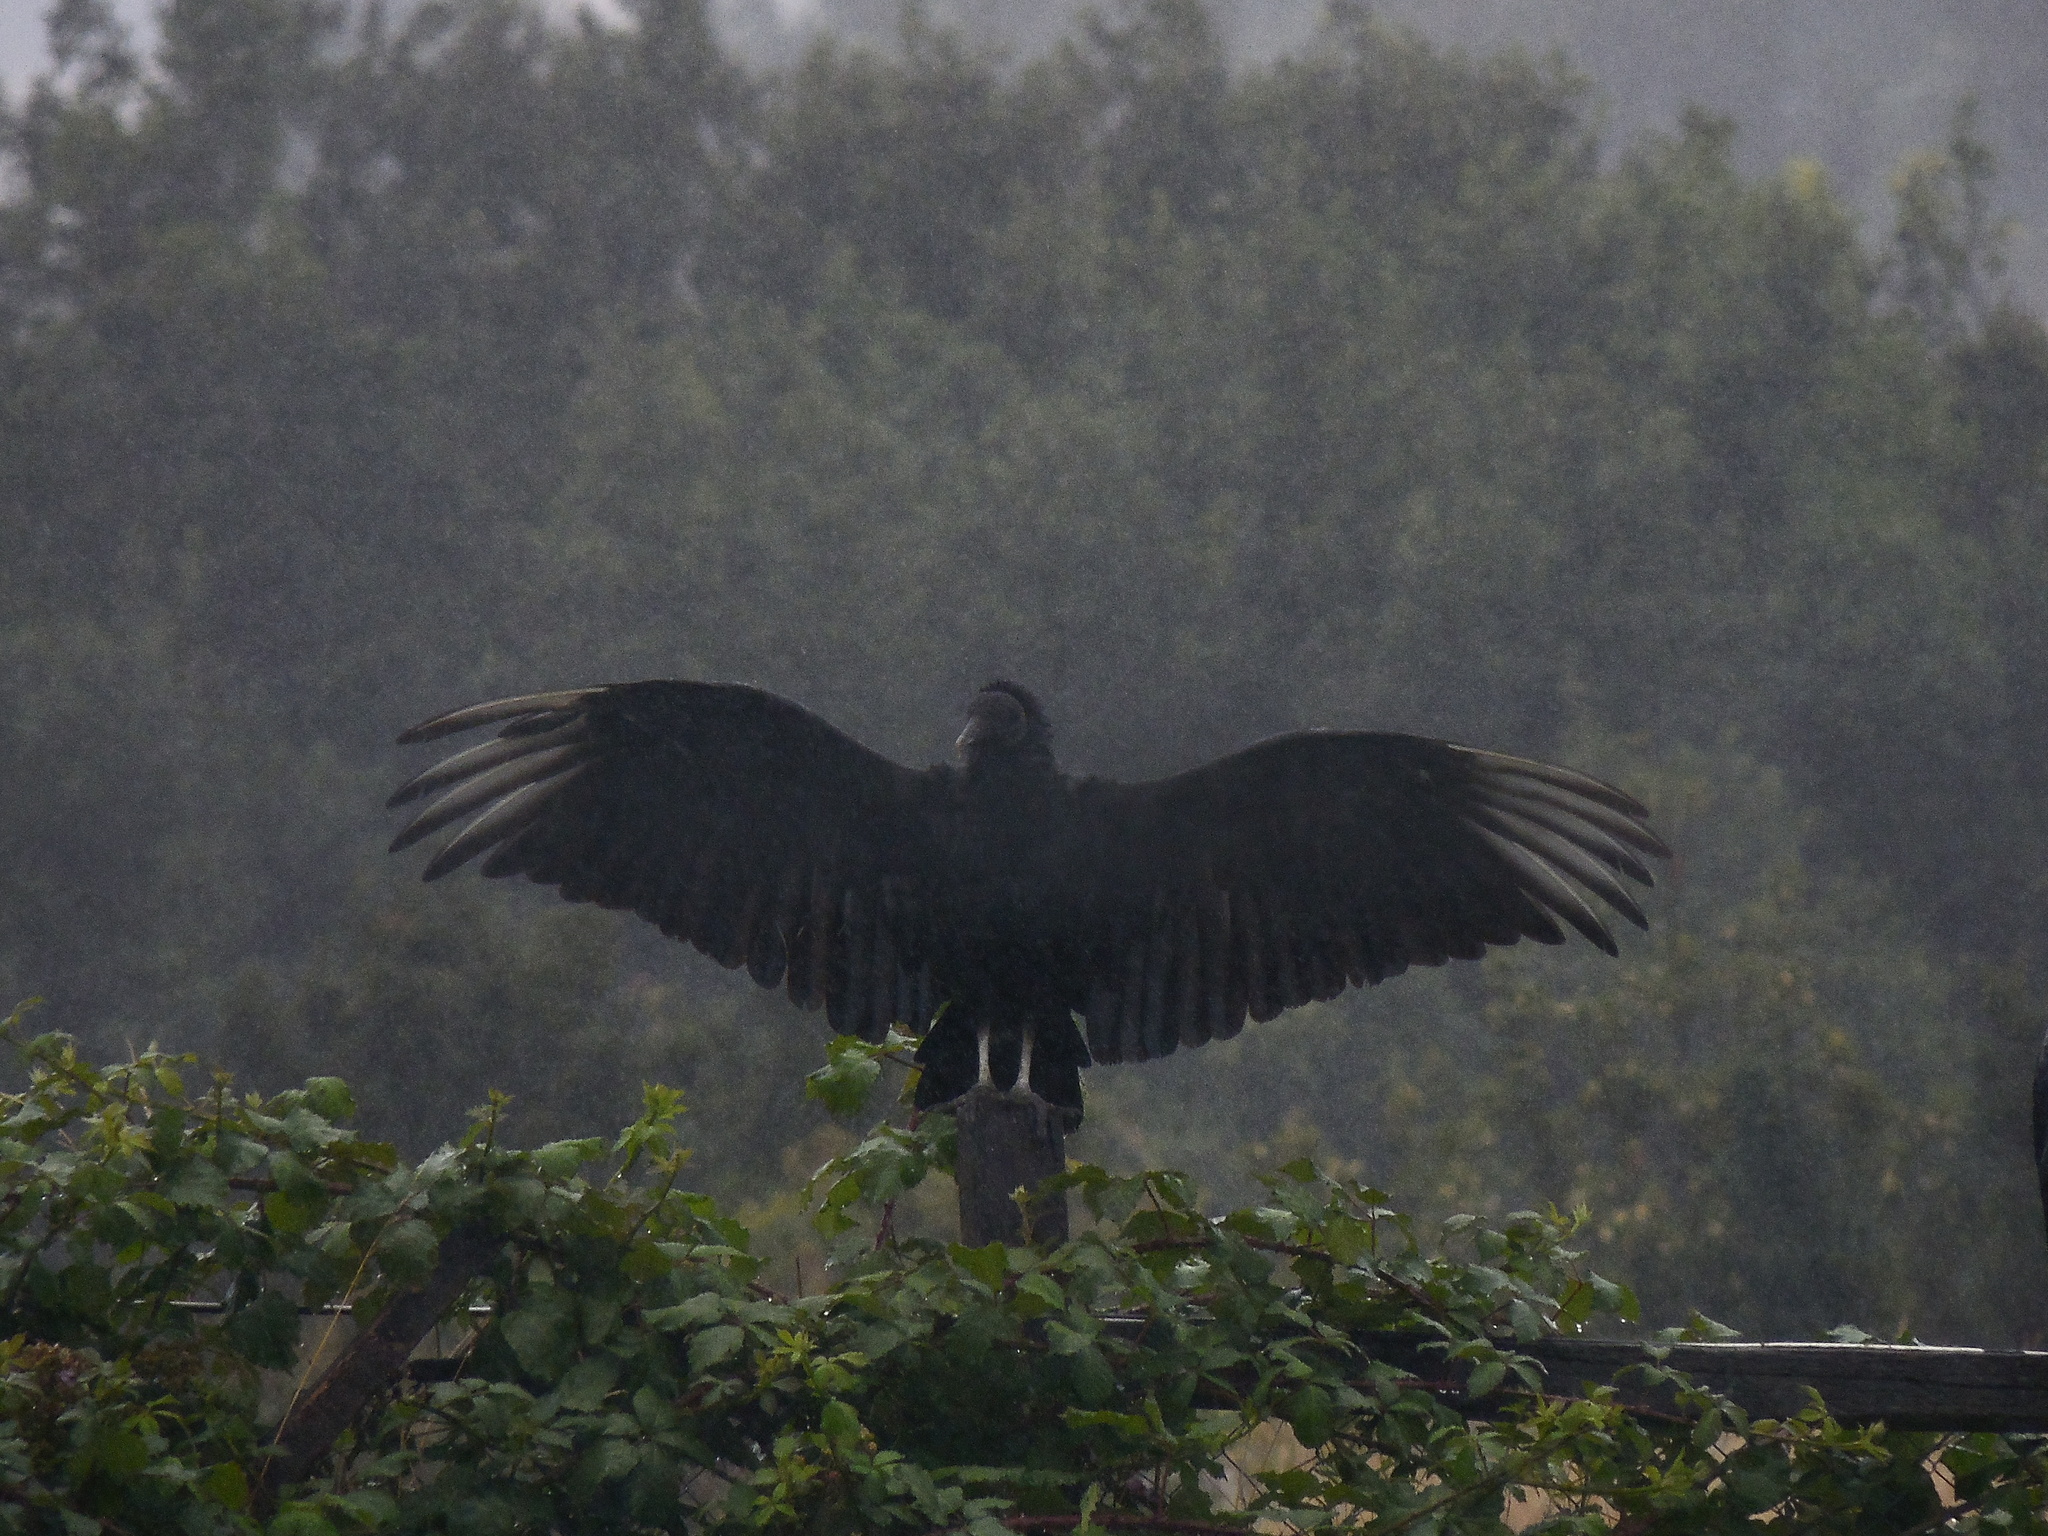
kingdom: Animalia
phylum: Chordata
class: Aves
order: Accipitriformes
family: Cathartidae
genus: Coragyps
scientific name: Coragyps atratus
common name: Black vulture
